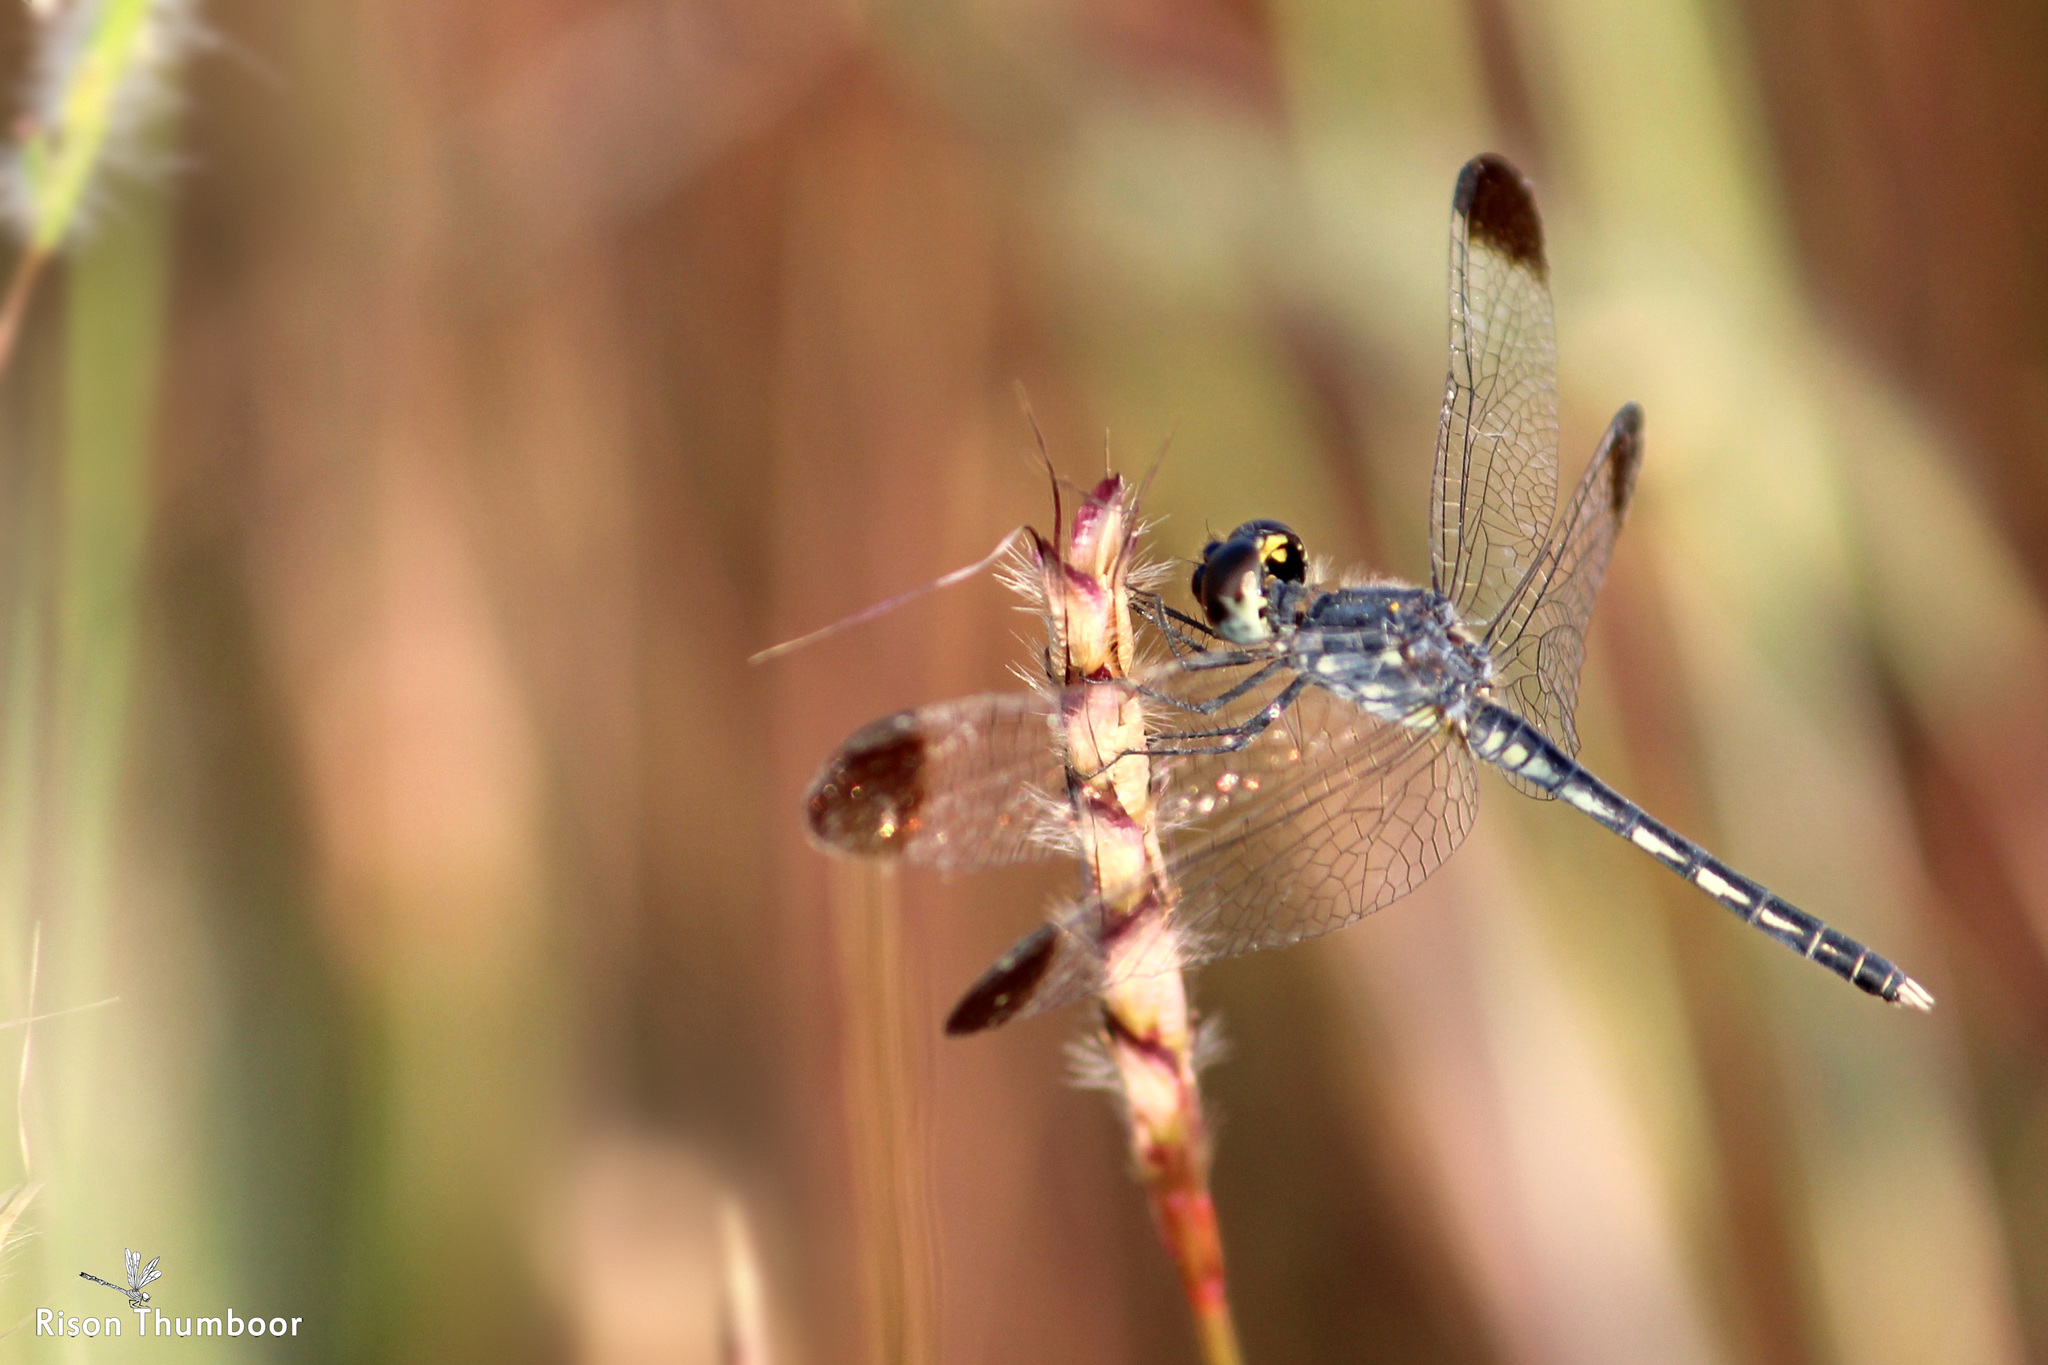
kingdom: Animalia
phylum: Arthropoda
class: Insecta
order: Odonata
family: Libellulidae
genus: Diplacodes
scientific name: Diplacodes nebulosa
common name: Black-tipped percher
